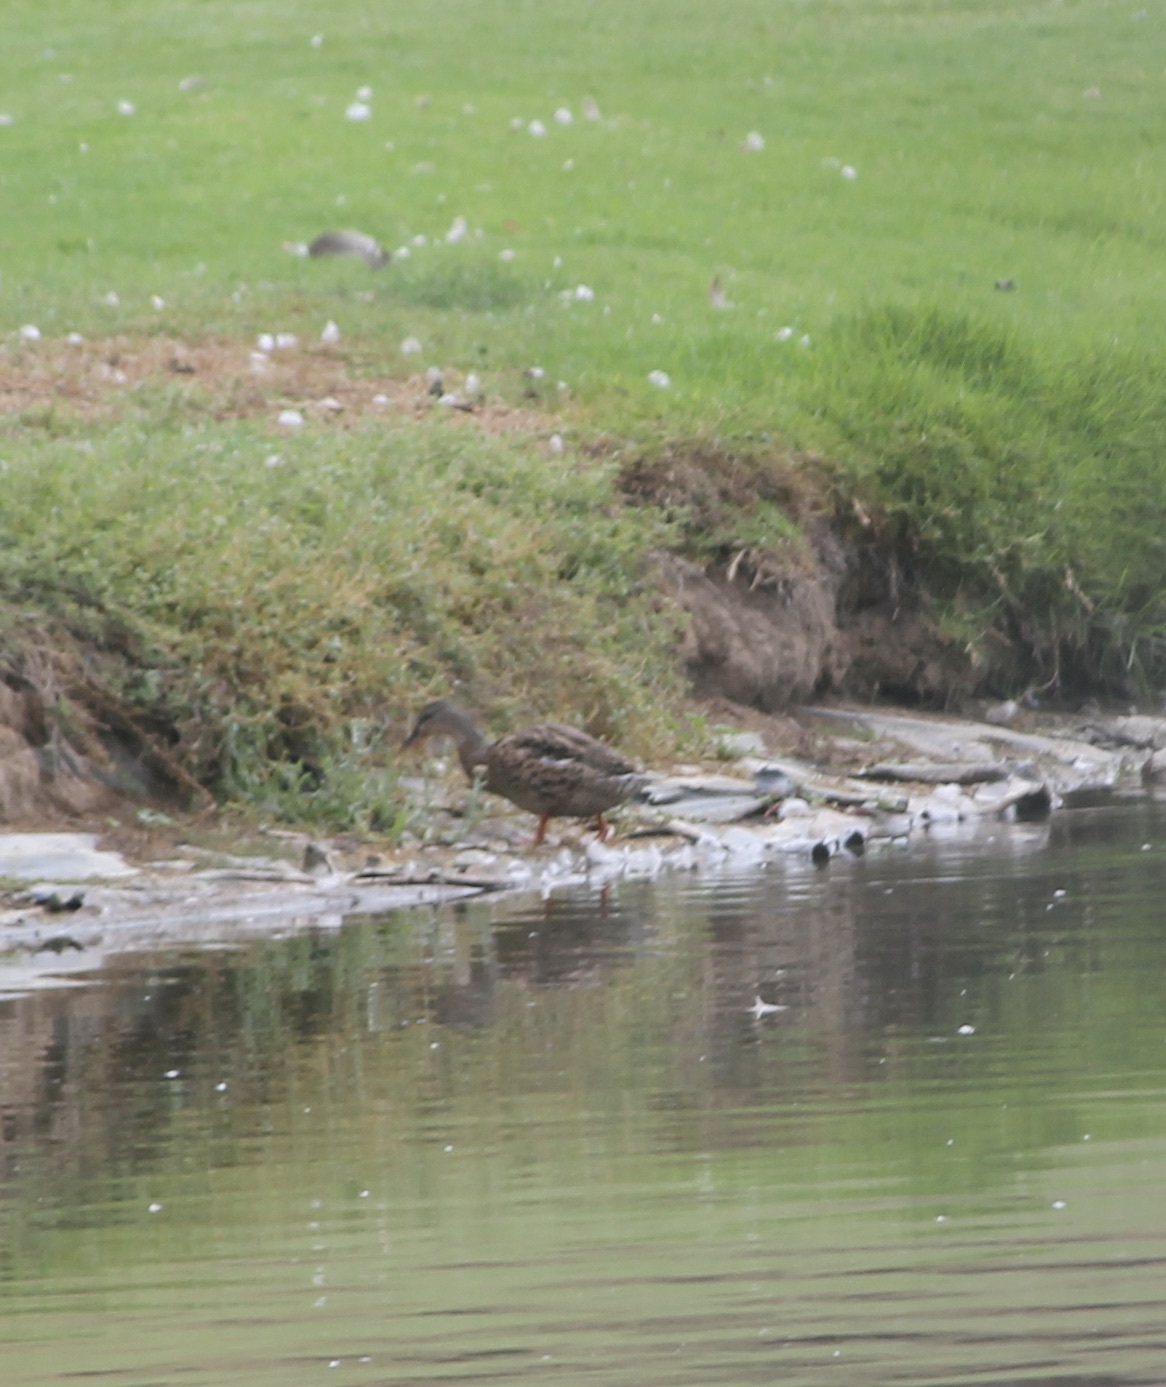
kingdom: Animalia
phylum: Chordata
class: Aves
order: Anseriformes
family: Anatidae
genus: Anas
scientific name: Anas platyrhynchos
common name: Mallard
